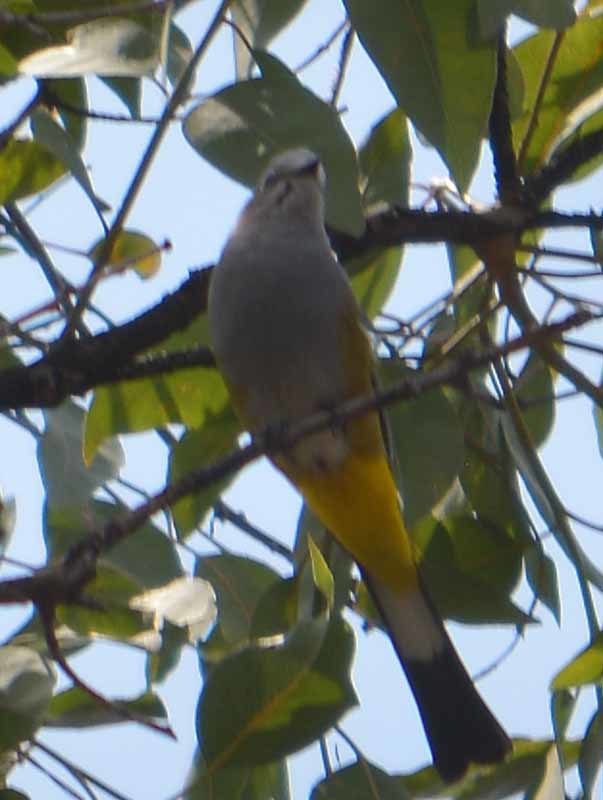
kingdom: Animalia
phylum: Chordata
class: Aves
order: Passeriformes
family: Ptilogonatidae
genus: Ptilogonys
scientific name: Ptilogonys cinereus
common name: Gray silky-flycatcher
